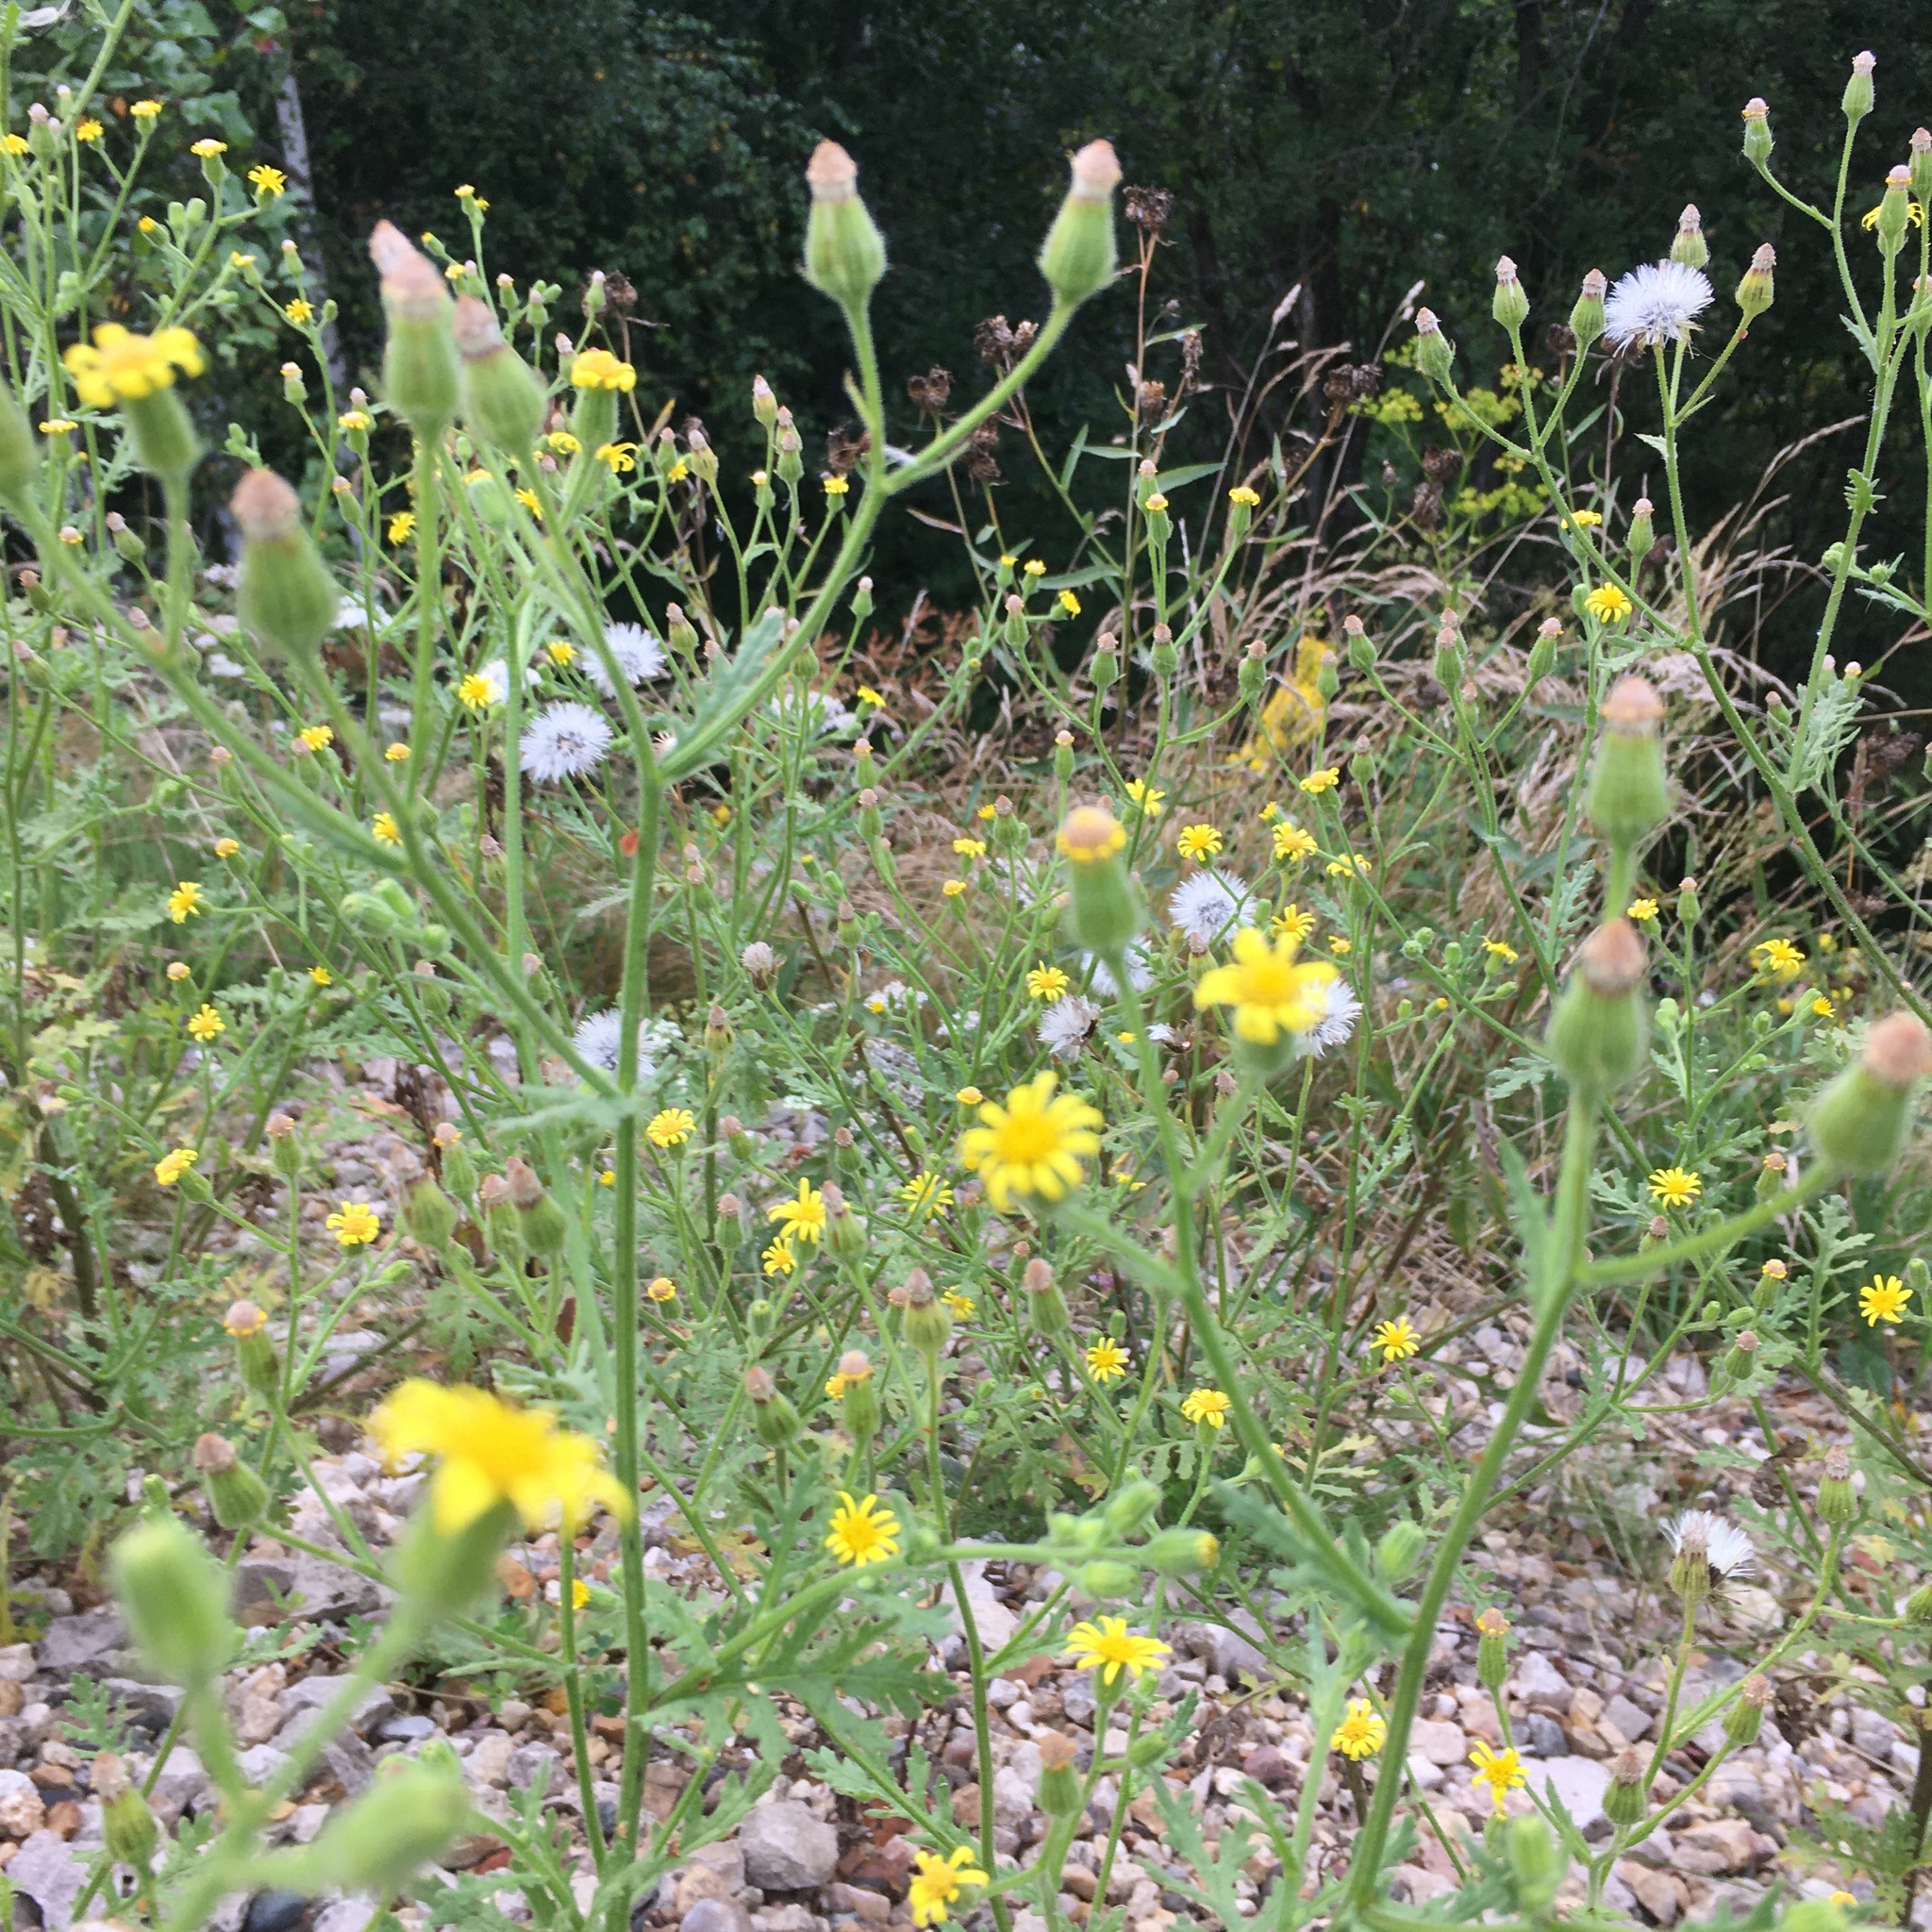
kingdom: Plantae
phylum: Tracheophyta
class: Magnoliopsida
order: Asterales
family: Asteraceae
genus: Senecio
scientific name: Senecio viscosus
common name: Sticky groundsel
